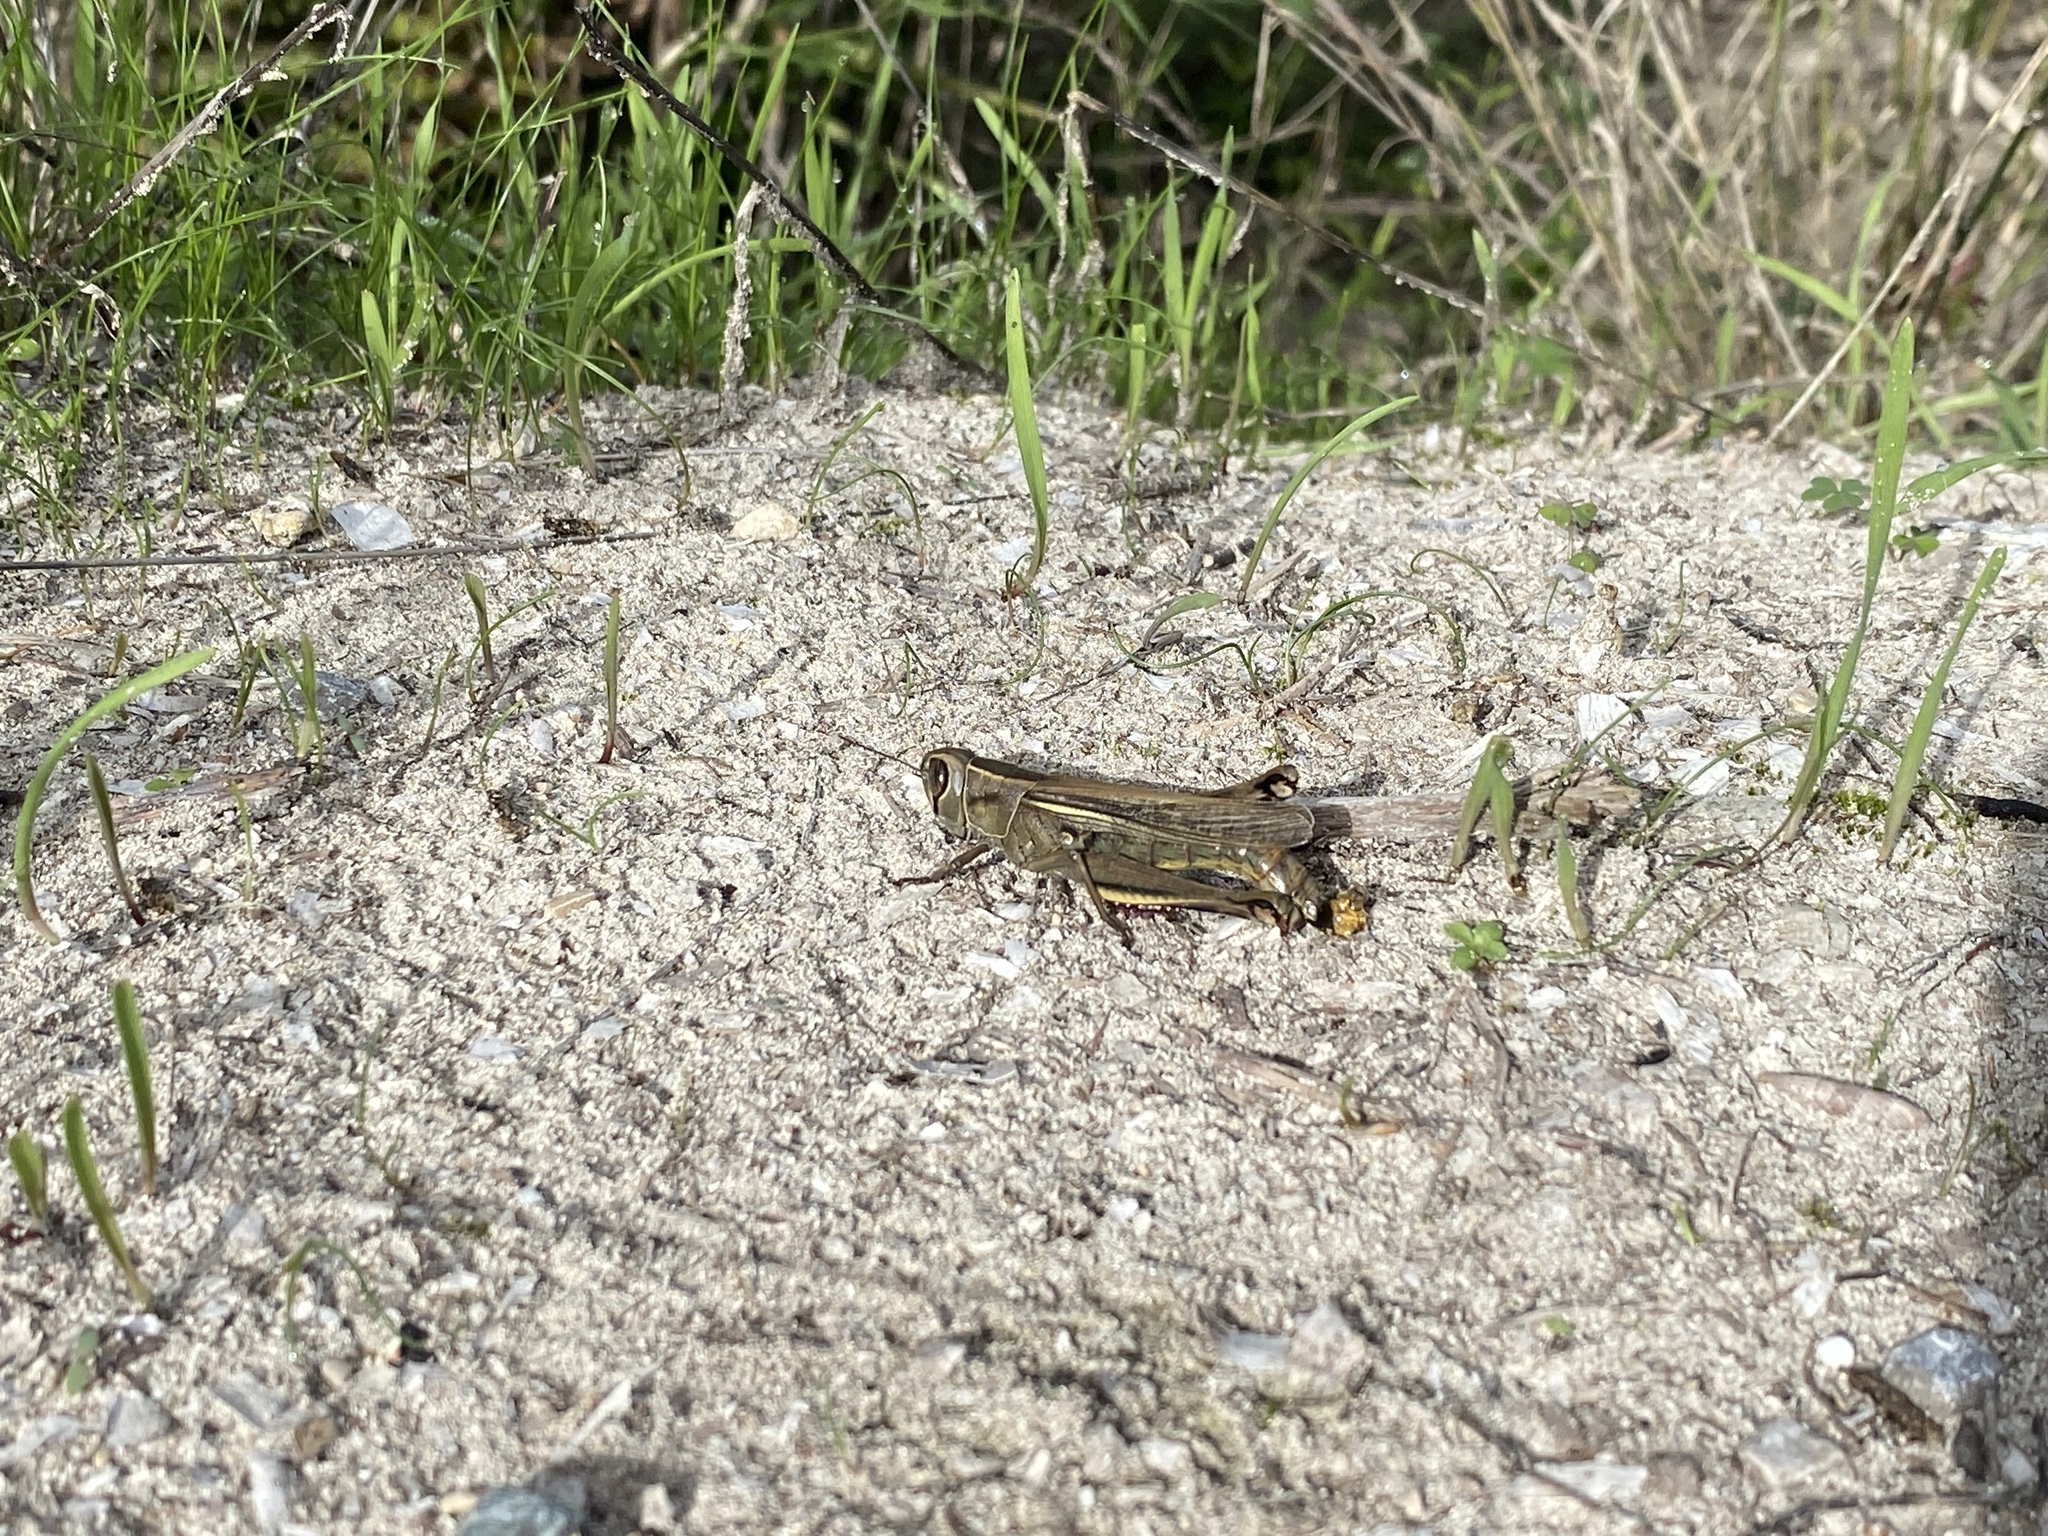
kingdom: Animalia
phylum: Arthropoda
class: Insecta
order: Orthoptera
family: Acrididae
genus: Eyprepocnemis
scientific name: Eyprepocnemis plorans
